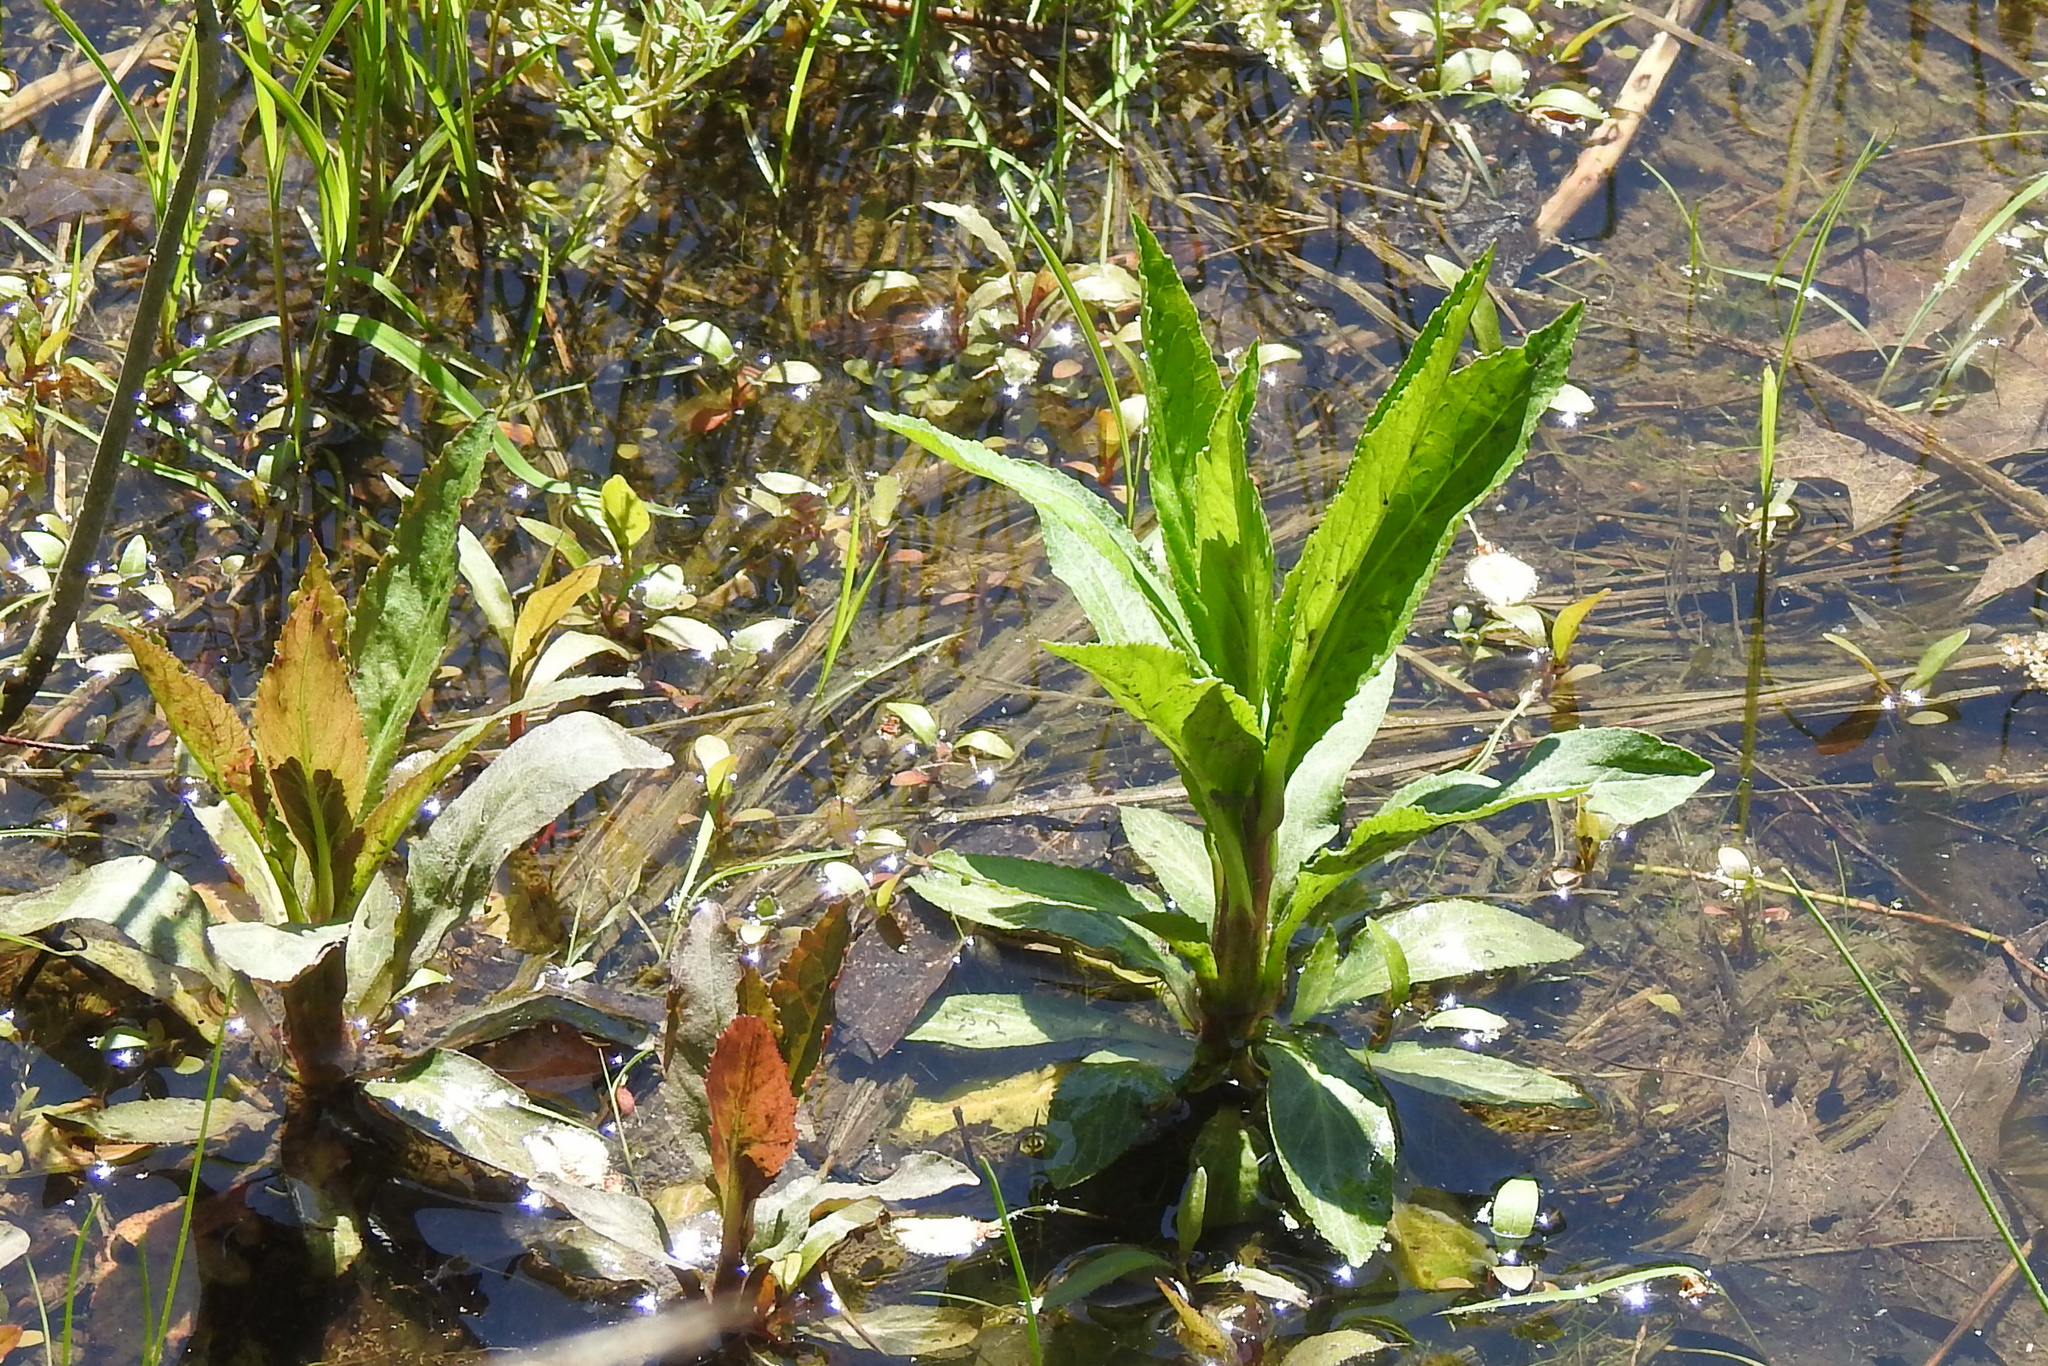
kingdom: Plantae
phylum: Tracheophyta
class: Magnoliopsida
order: Asterales
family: Campanulaceae
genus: Lobelia
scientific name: Lobelia cardinalis
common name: Cardinal flower
